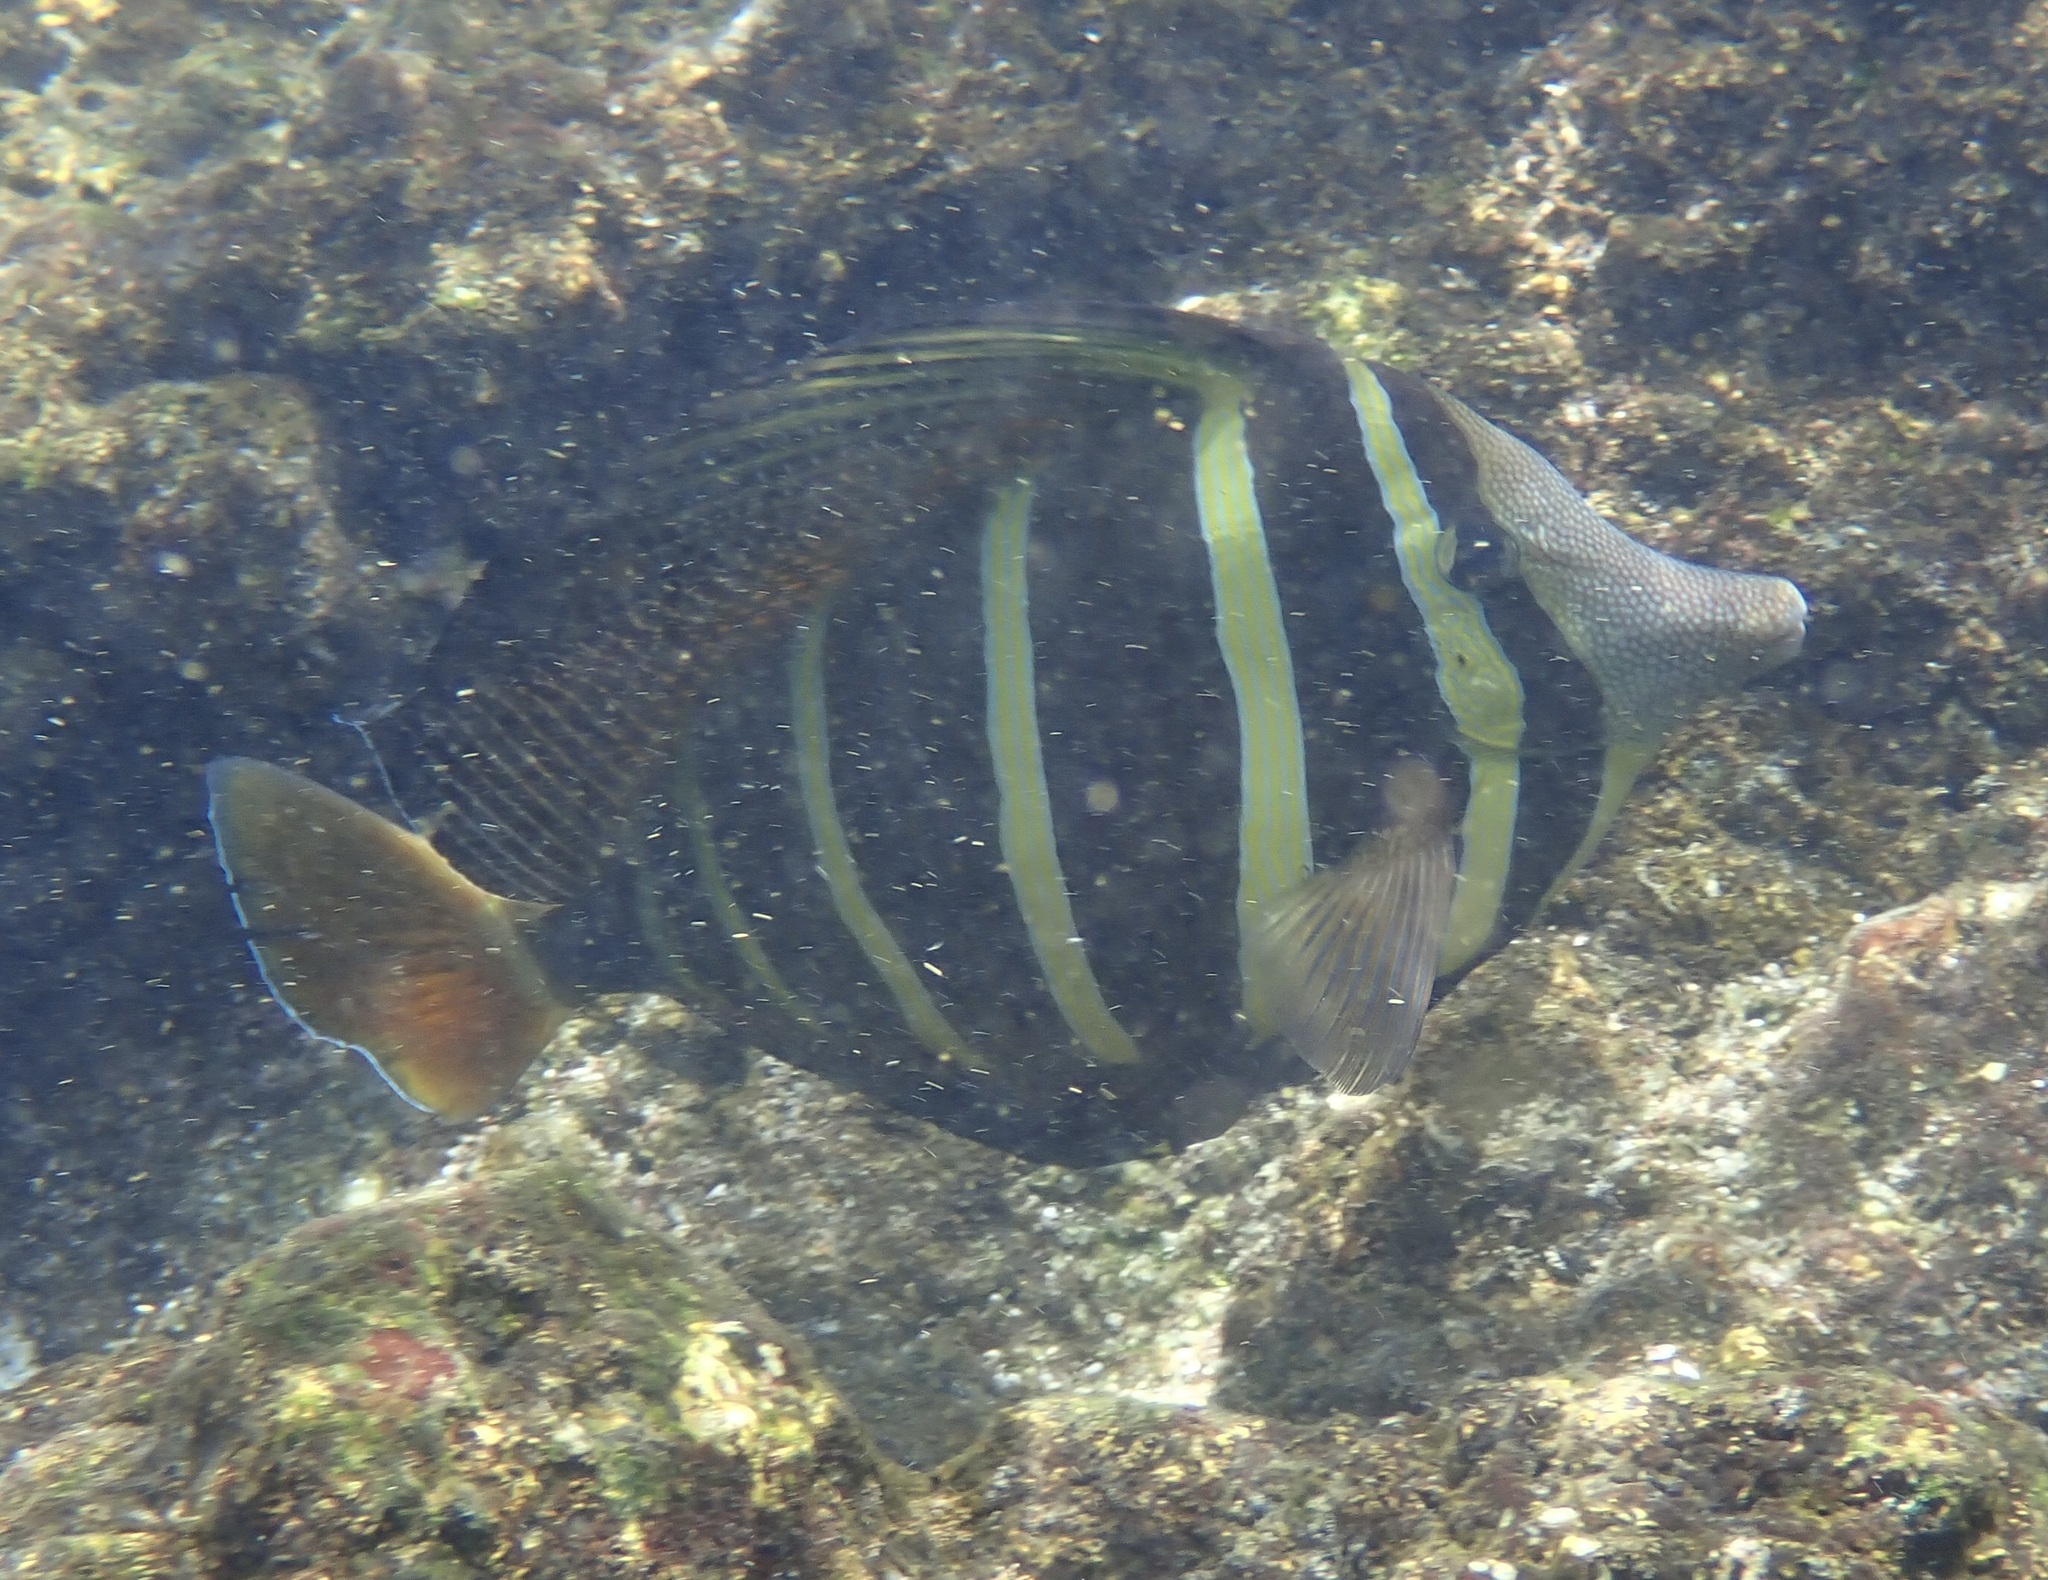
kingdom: Animalia
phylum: Chordata
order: Perciformes
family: Acanthuridae
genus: Zebrasoma
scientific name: Zebrasoma veliferum
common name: Sailfin surgeonfish
